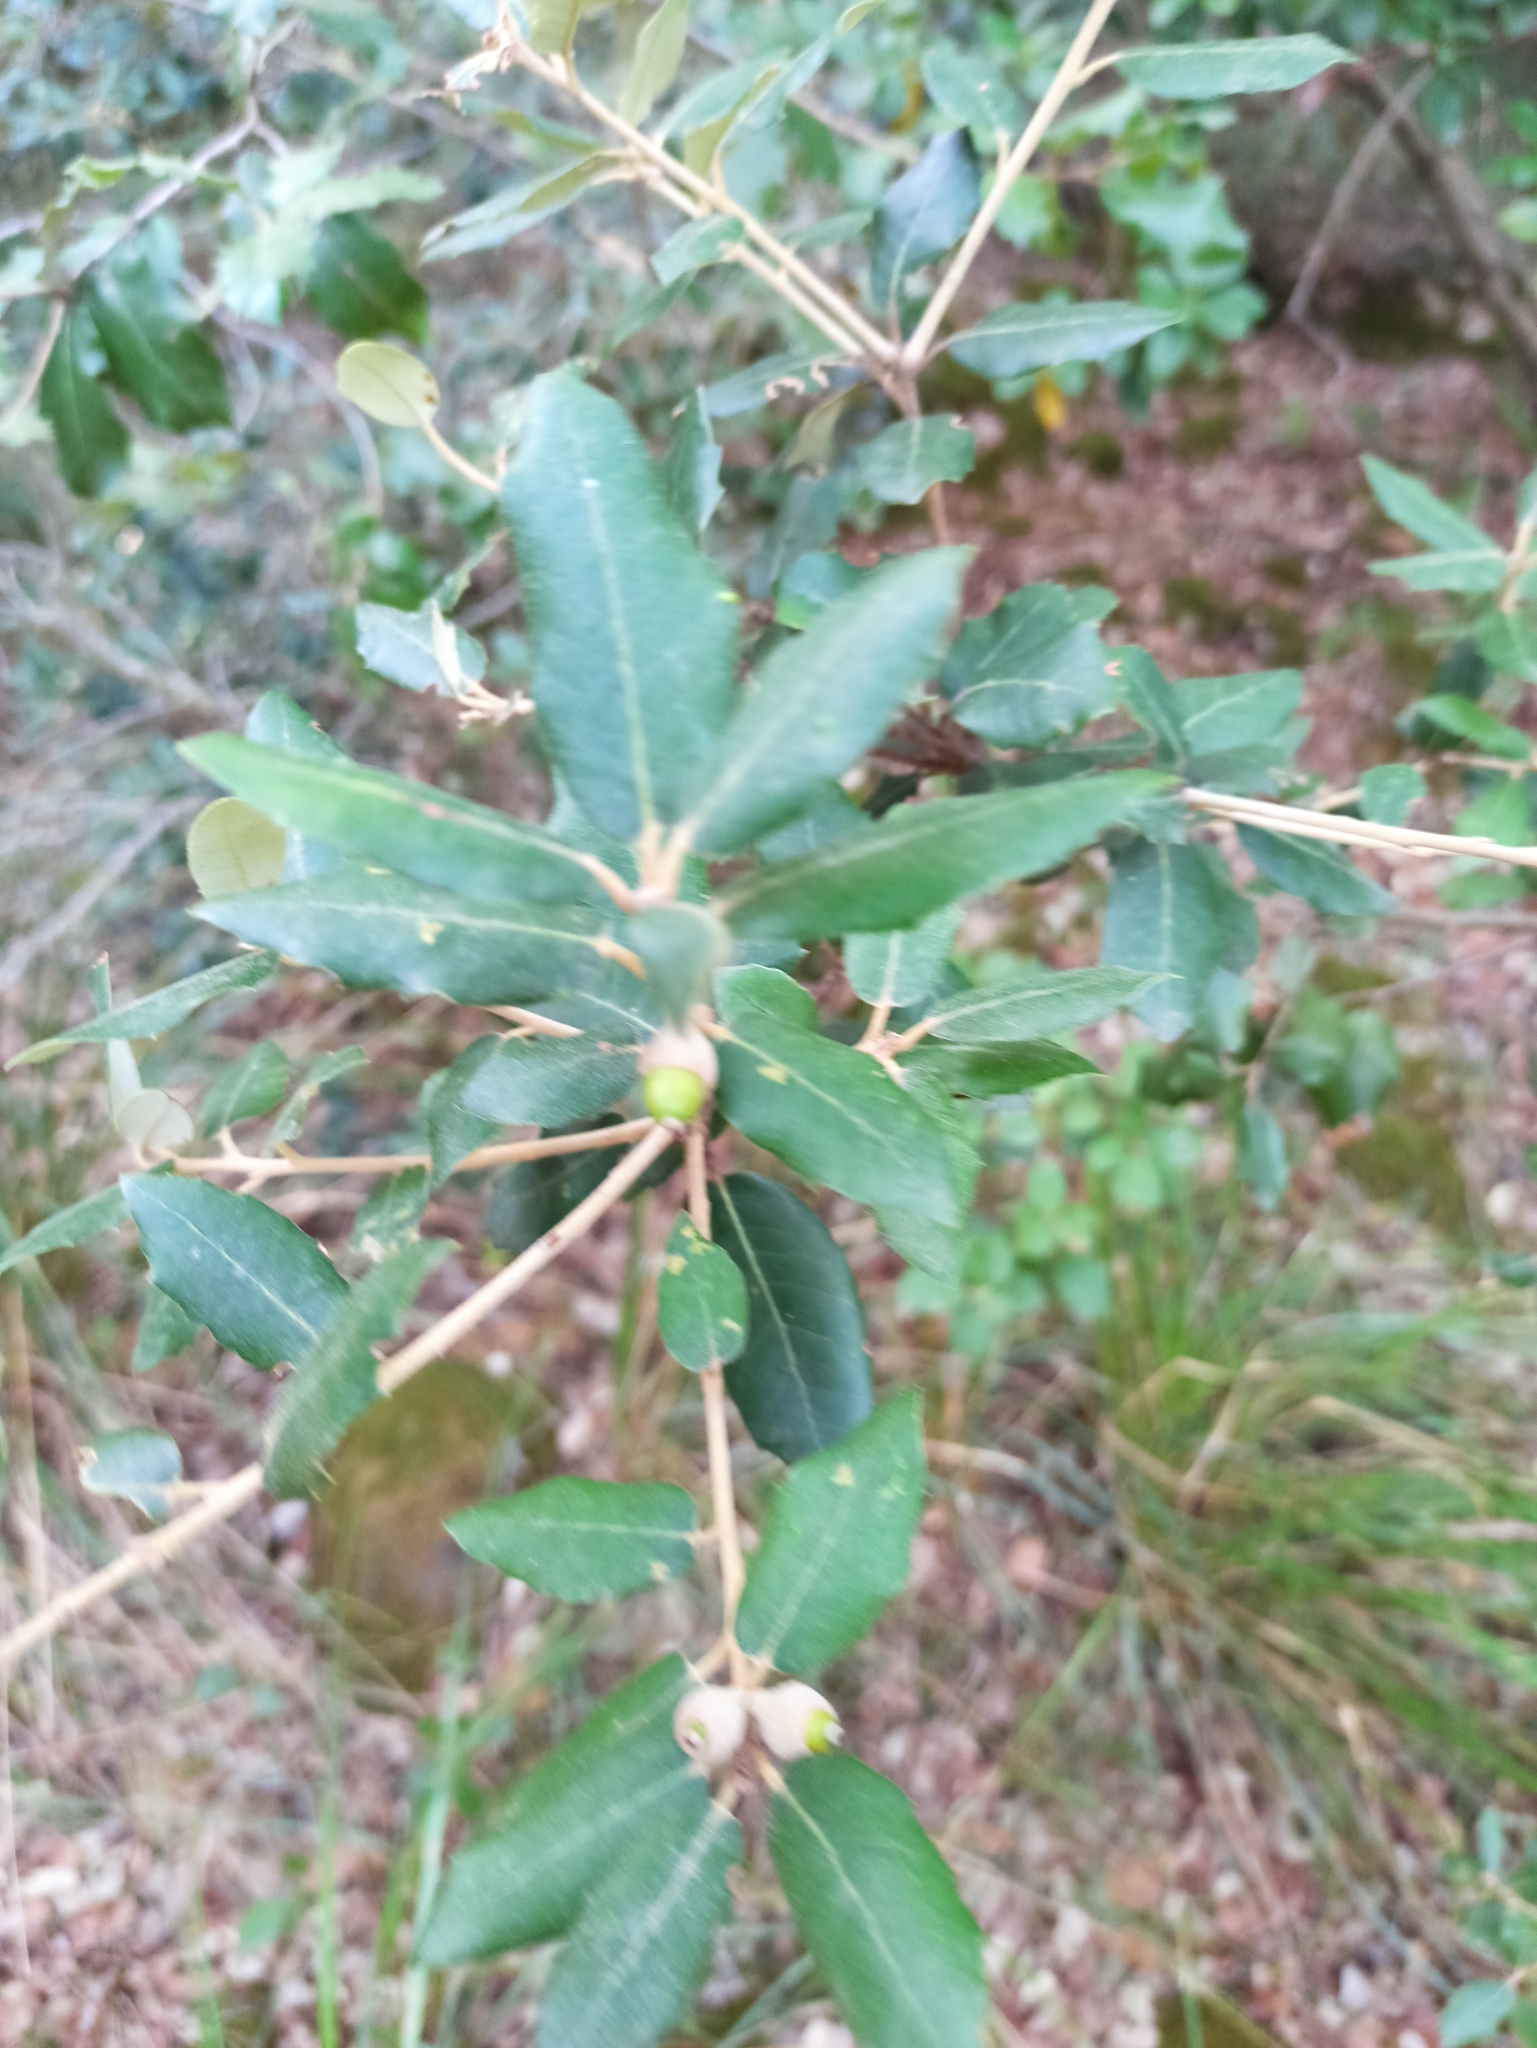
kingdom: Plantae
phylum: Tracheophyta
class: Magnoliopsida
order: Fagales
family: Fagaceae
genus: Quercus
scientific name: Quercus ilex
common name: Evergreen oak
